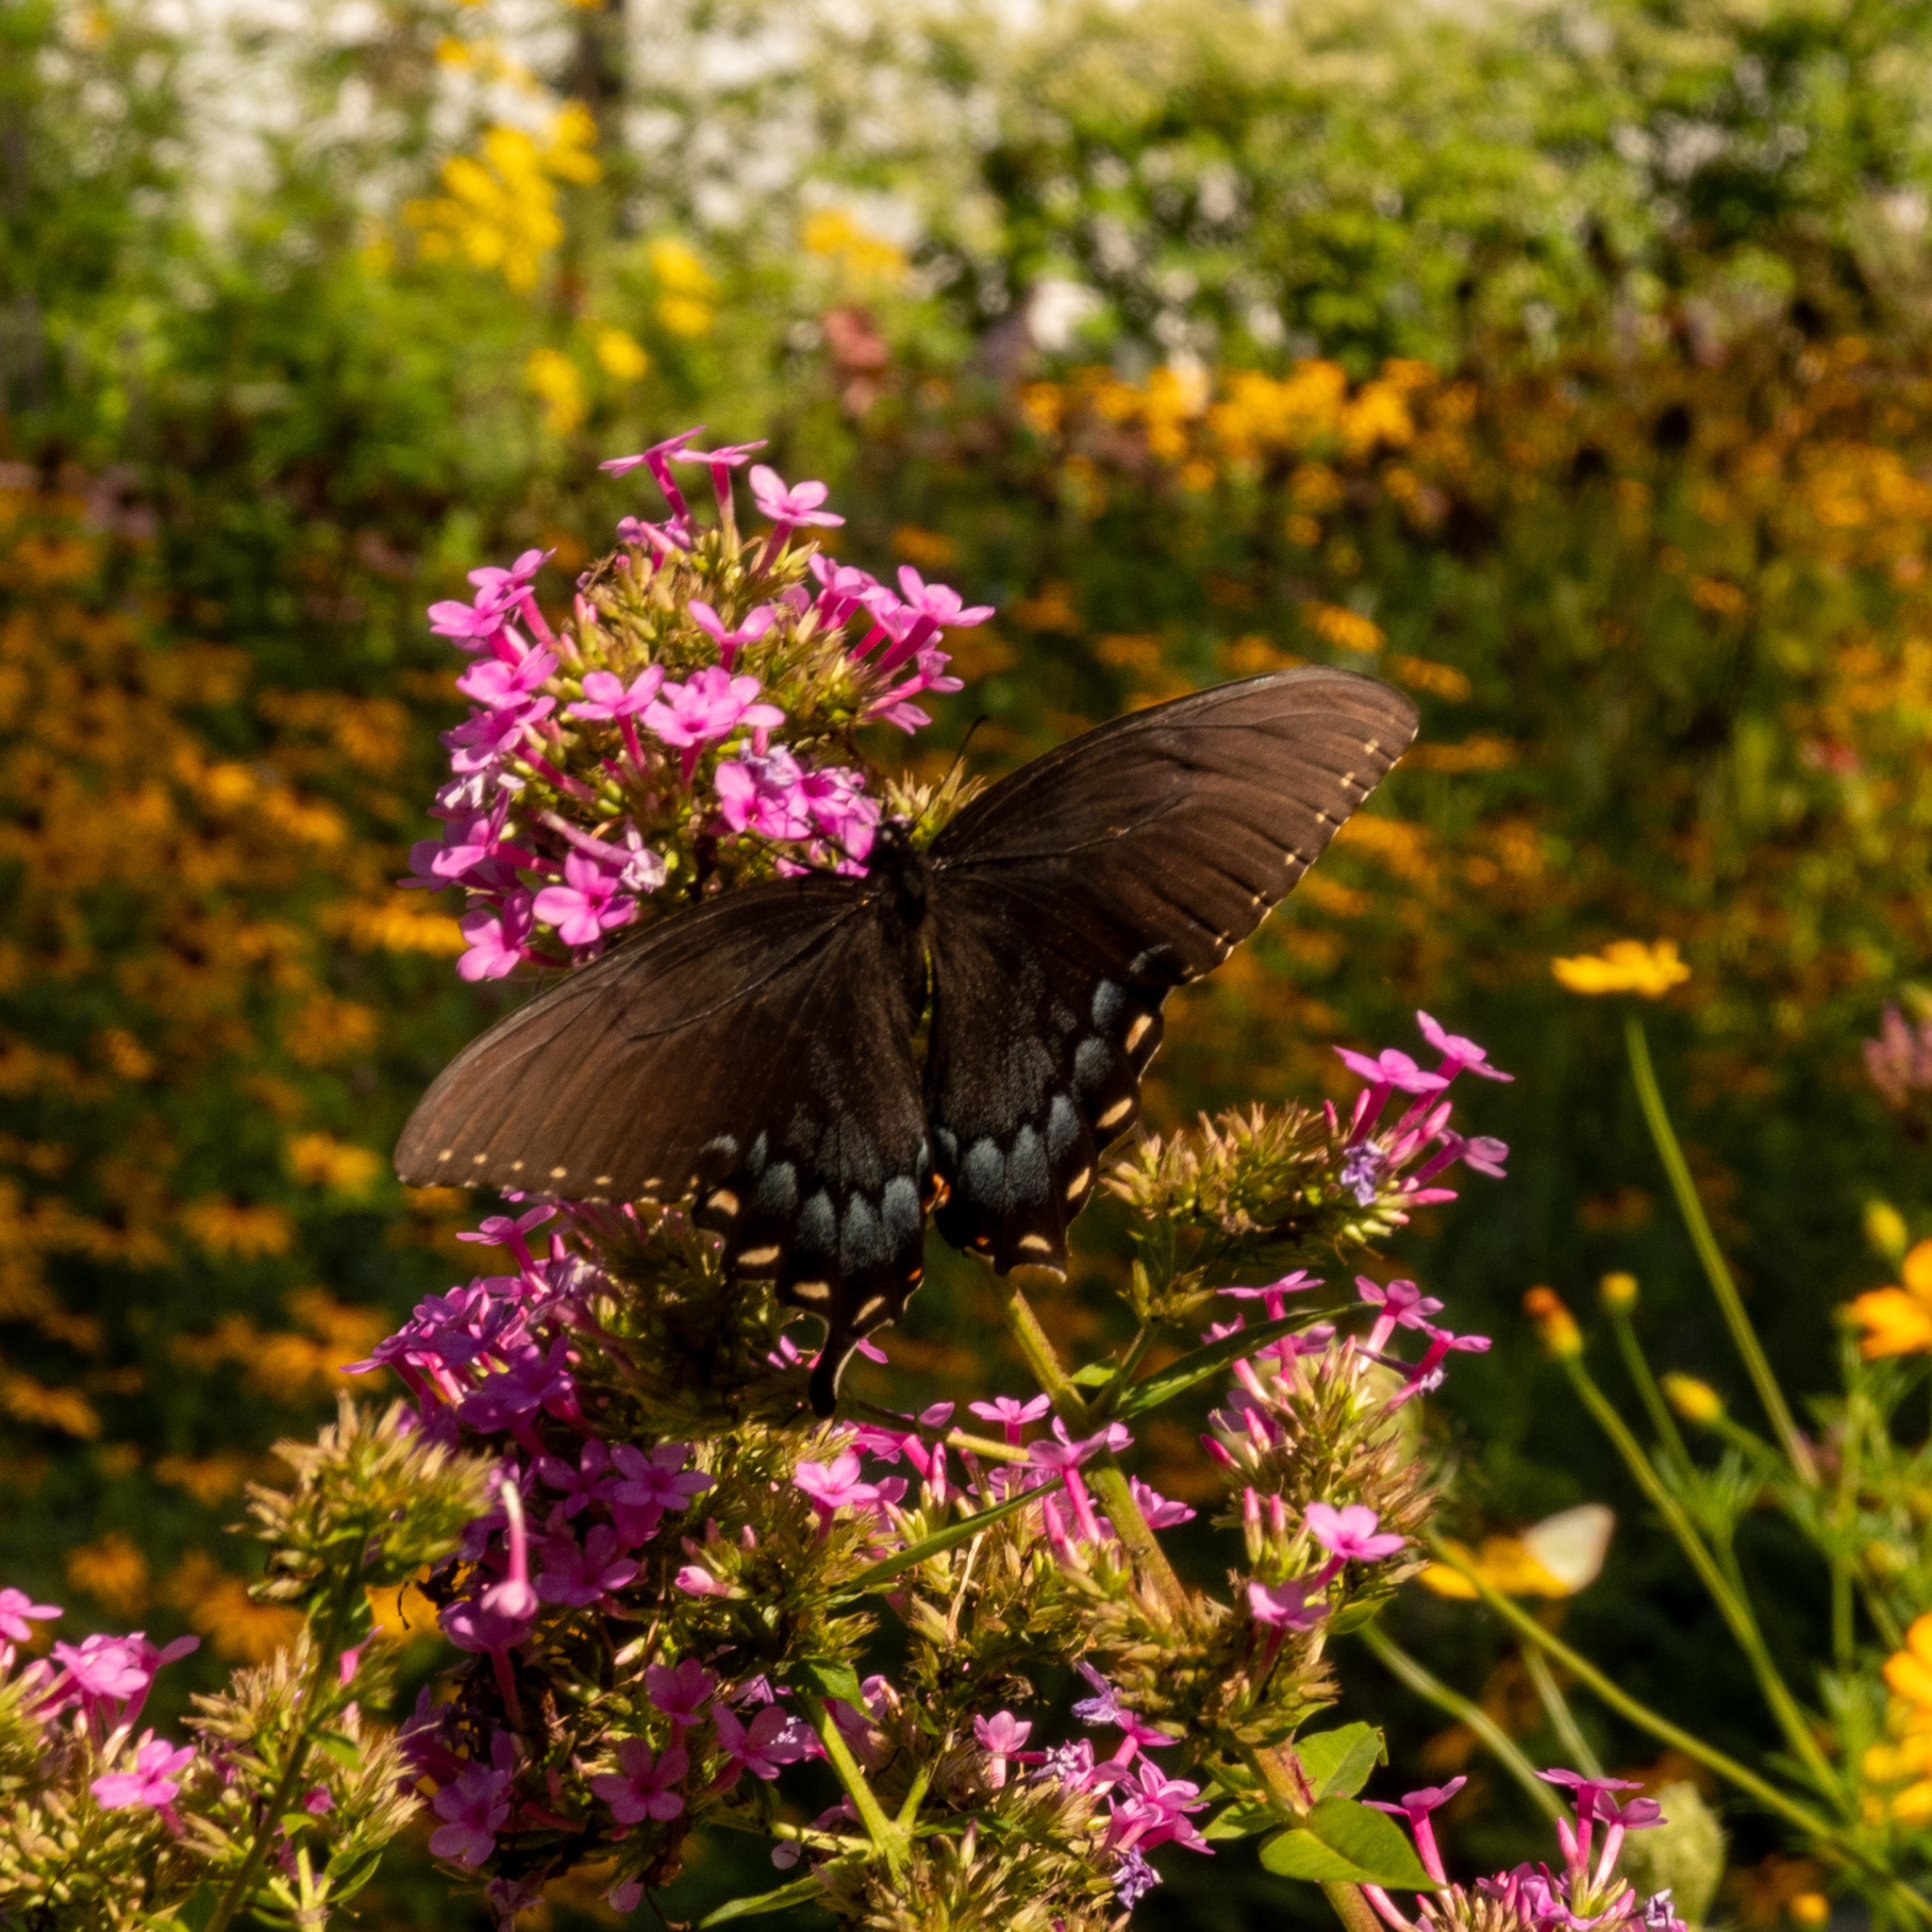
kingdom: Animalia
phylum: Arthropoda
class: Insecta
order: Lepidoptera
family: Papilionidae
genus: Papilio
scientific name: Papilio glaucus
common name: Tiger swallowtail
